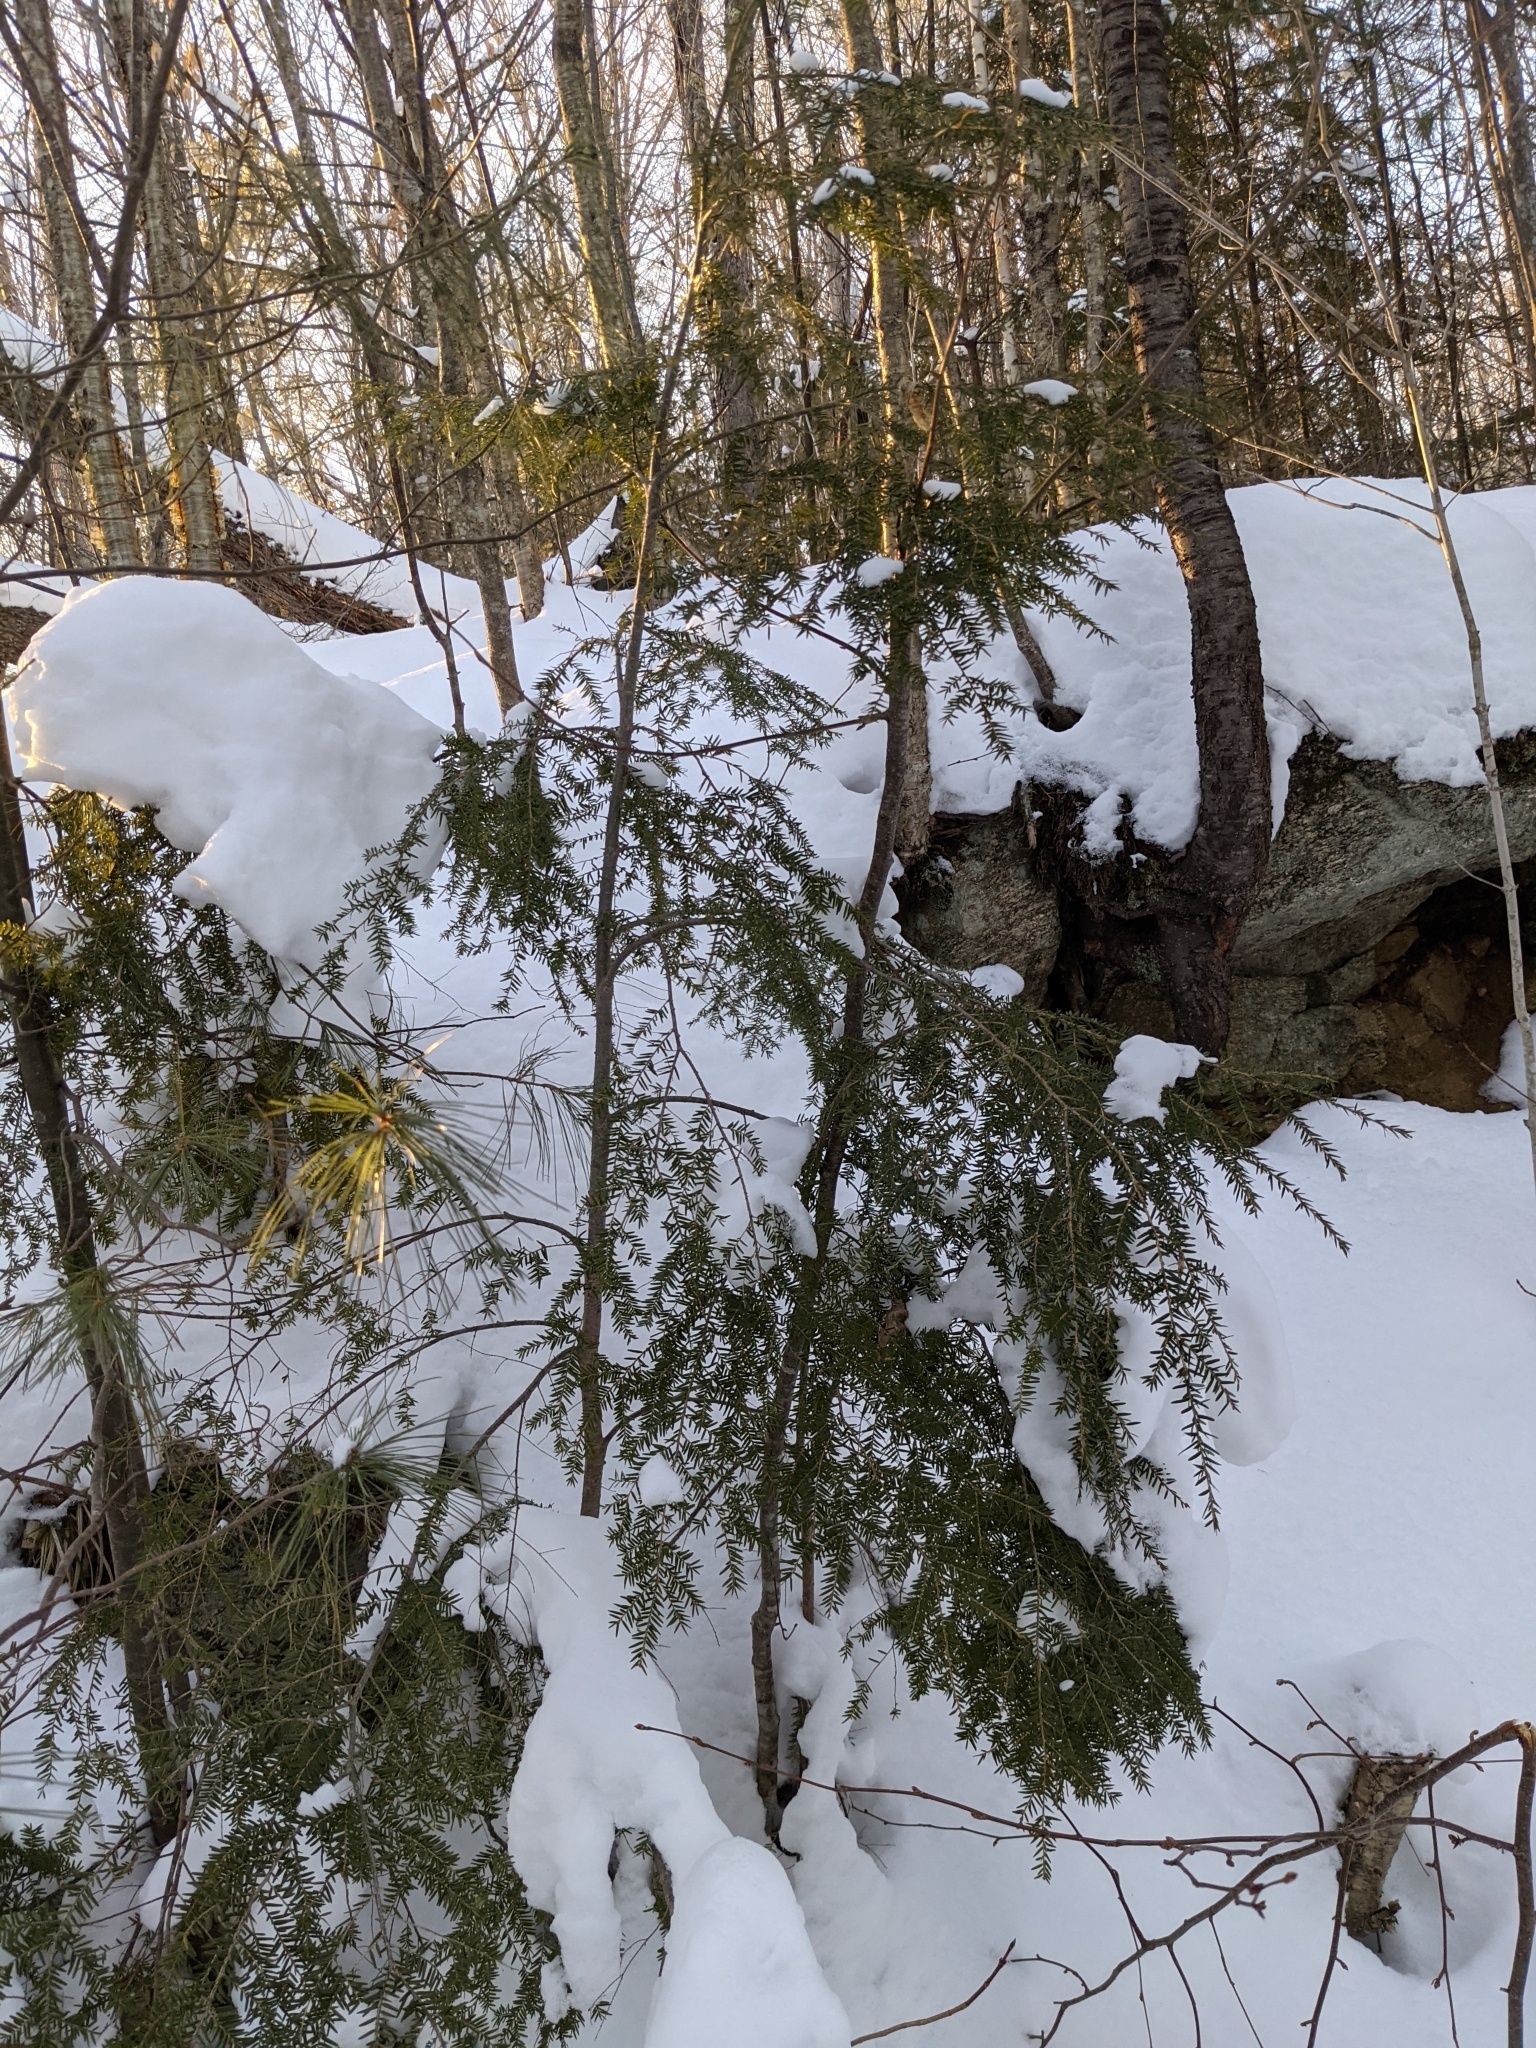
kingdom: Plantae
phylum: Tracheophyta
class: Pinopsida
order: Pinales
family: Pinaceae
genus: Tsuga
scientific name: Tsuga canadensis
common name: Eastern hemlock
